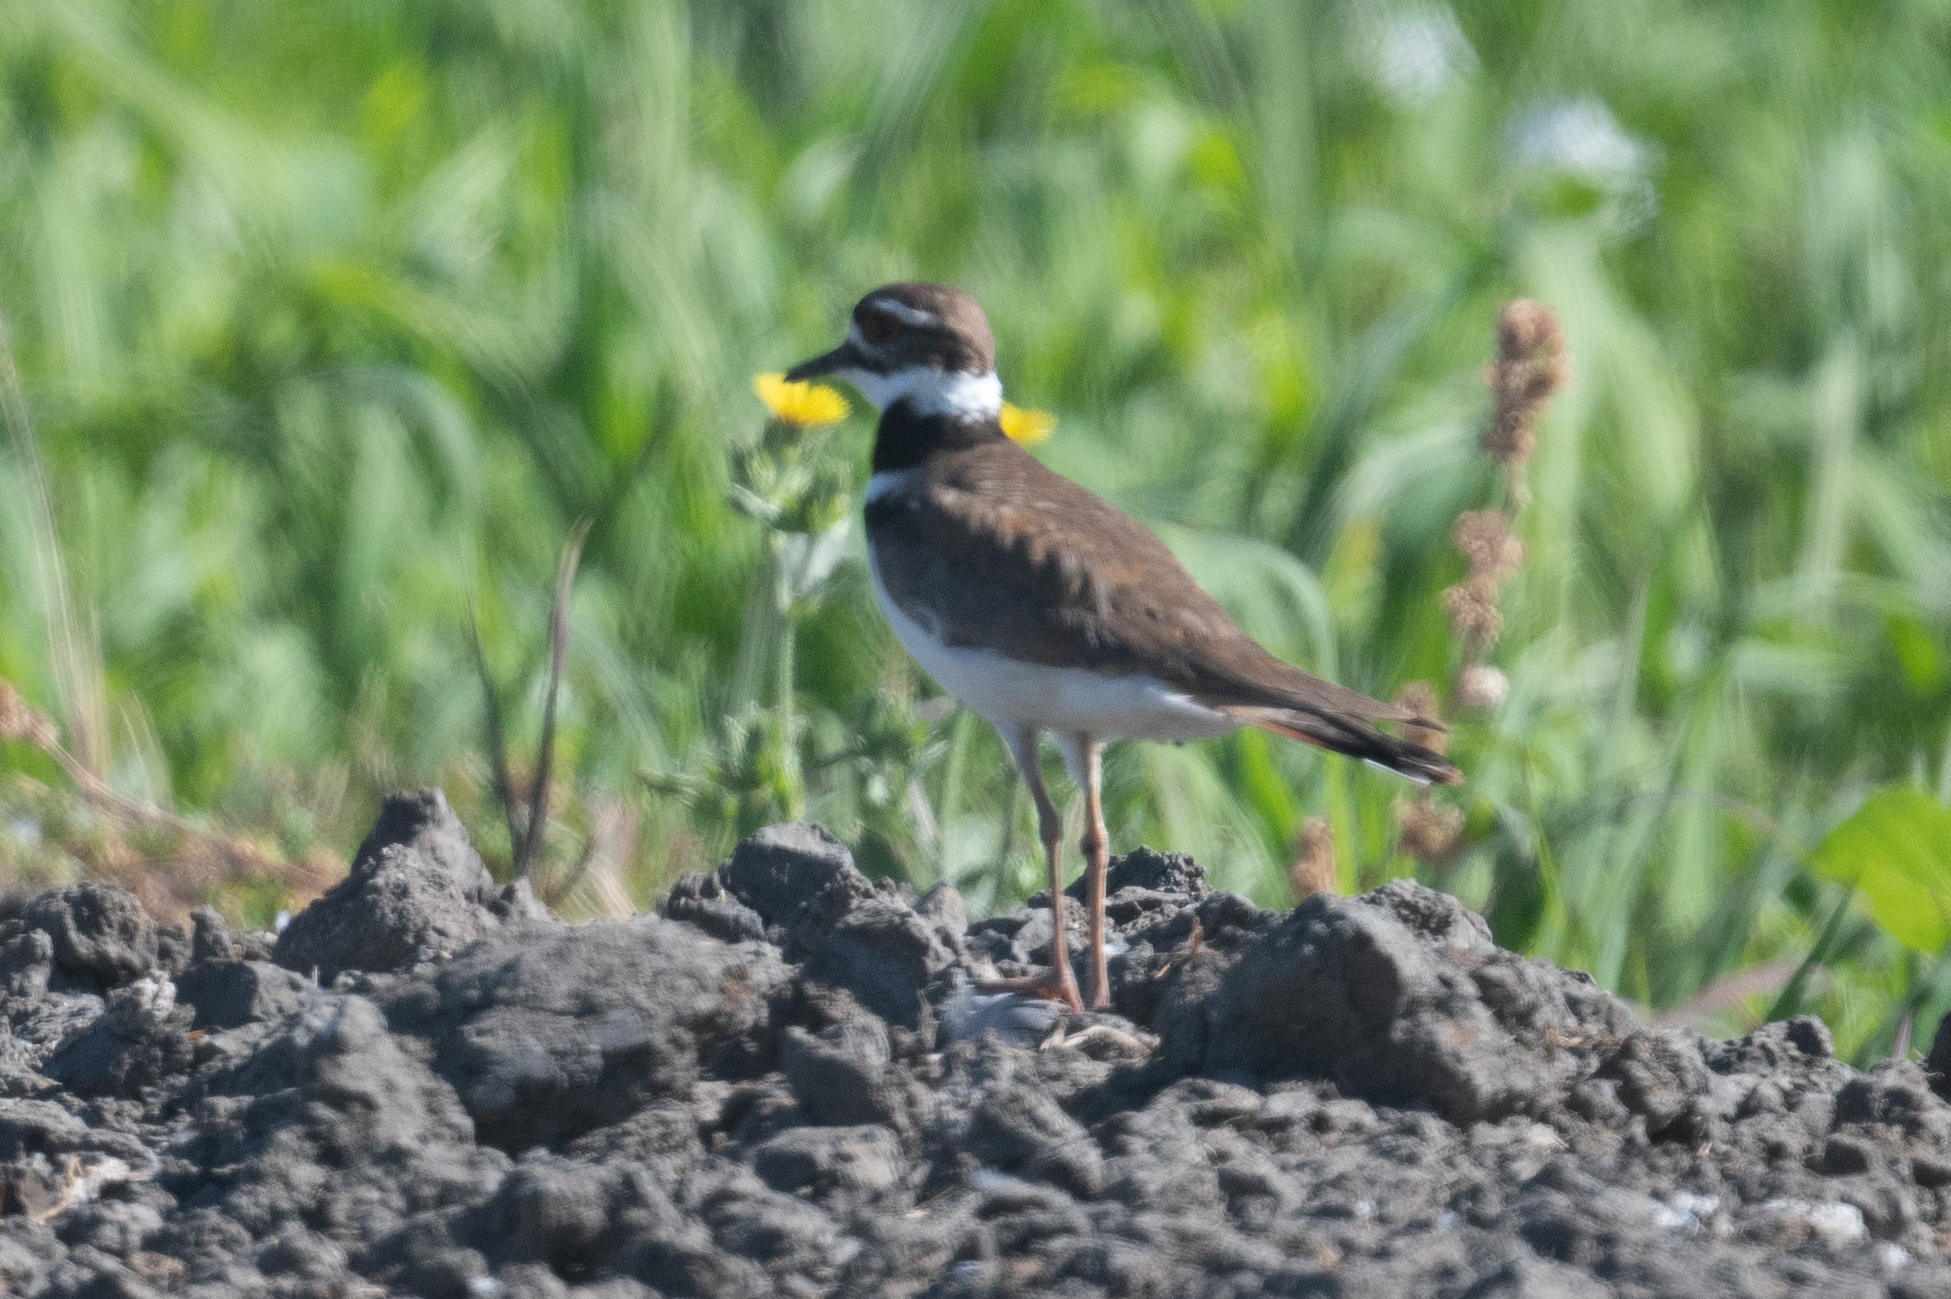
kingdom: Animalia
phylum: Chordata
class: Aves
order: Charadriiformes
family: Charadriidae
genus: Charadrius
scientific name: Charadrius vociferus
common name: Killdeer
